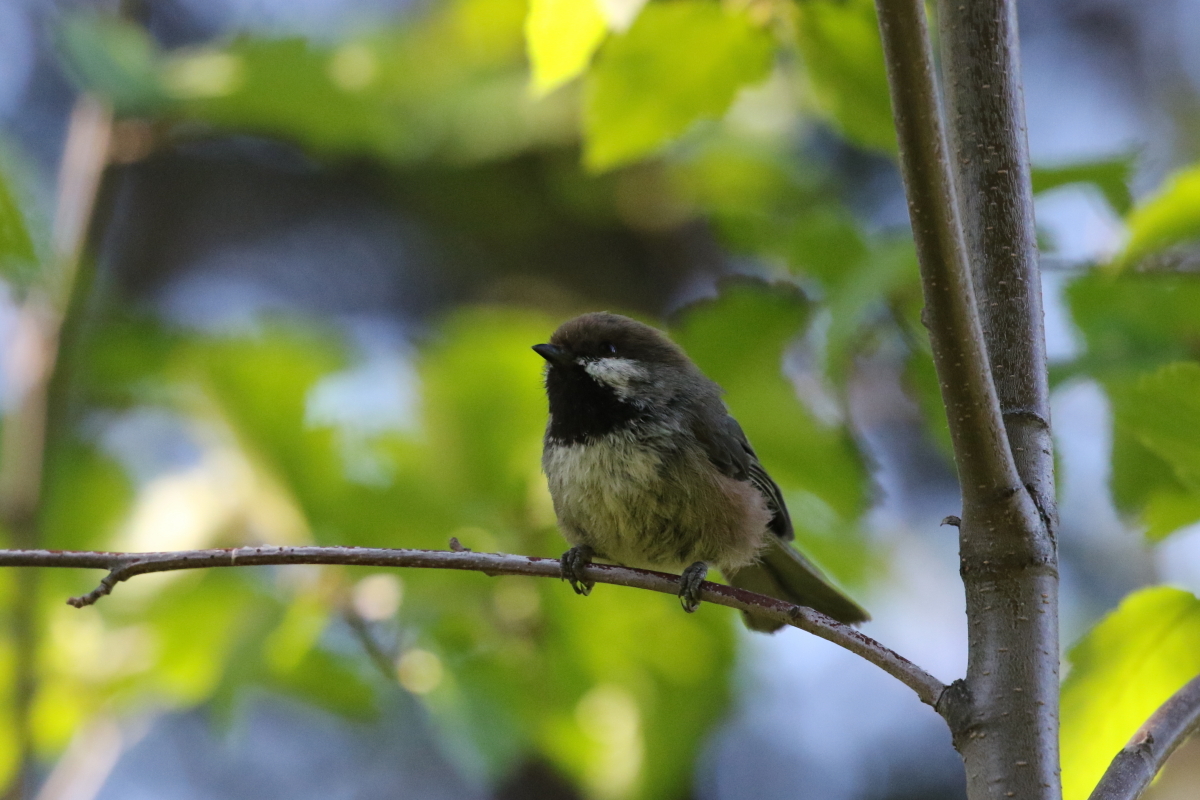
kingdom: Animalia
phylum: Chordata
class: Aves
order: Passeriformes
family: Paridae
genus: Poecile
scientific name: Poecile hudsonicus
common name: Boreal chickadee
